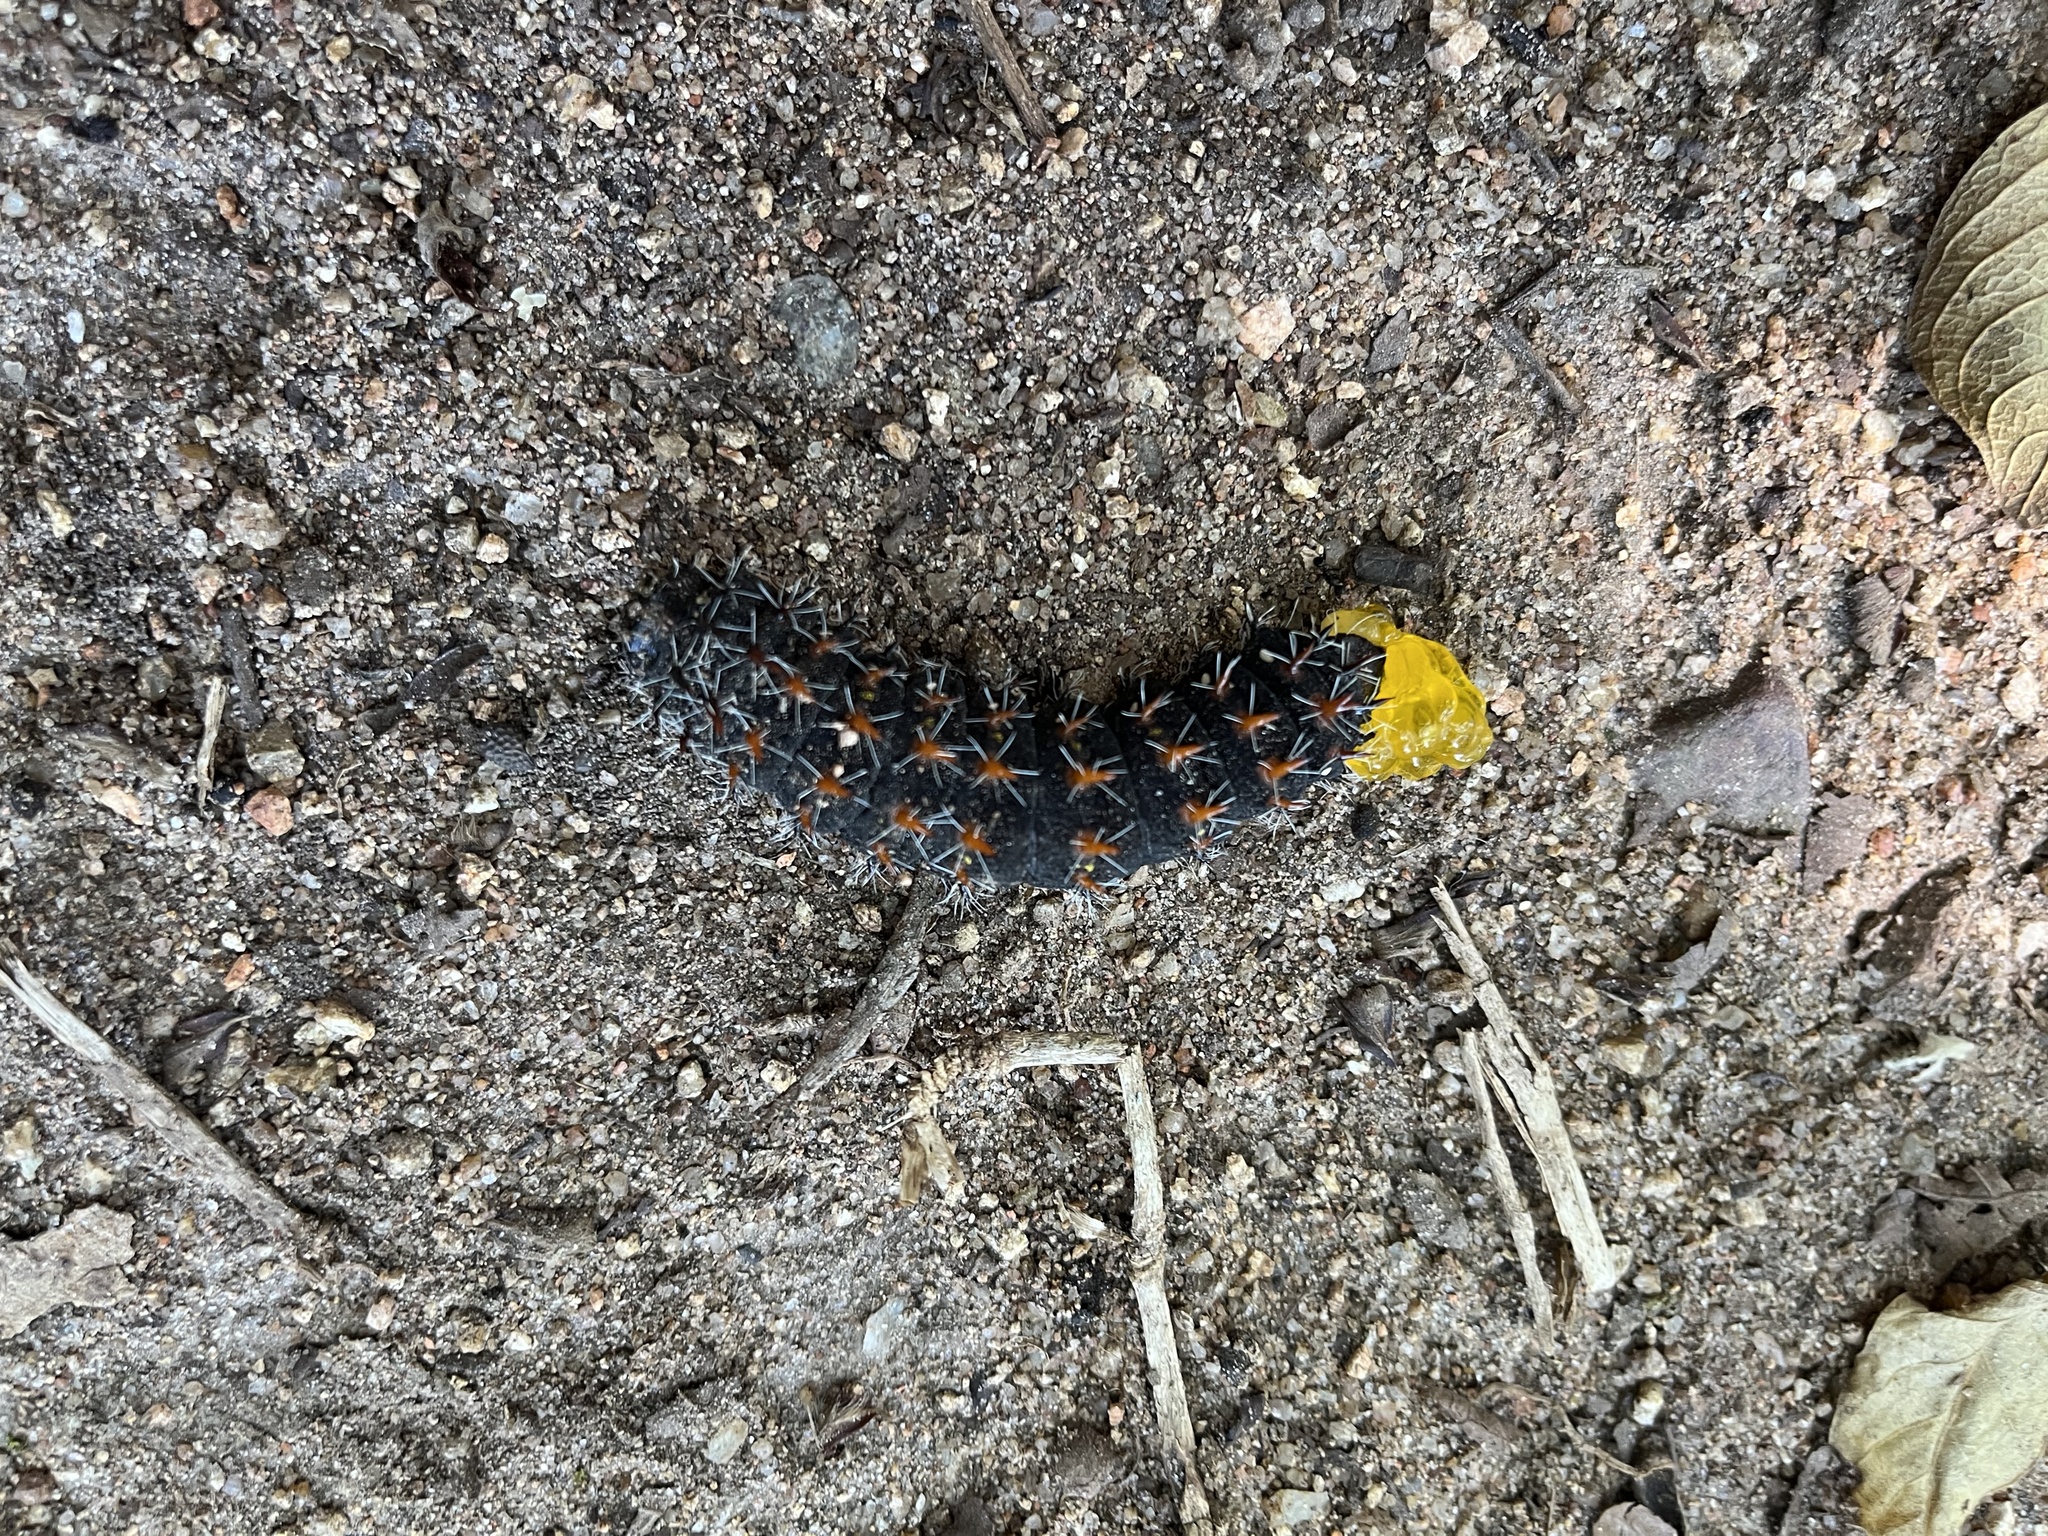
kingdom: Animalia
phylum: Arthropoda
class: Insecta
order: Lepidoptera
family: Saturniidae
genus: Nudaurelia
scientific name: Nudaurelia wahlbergi
